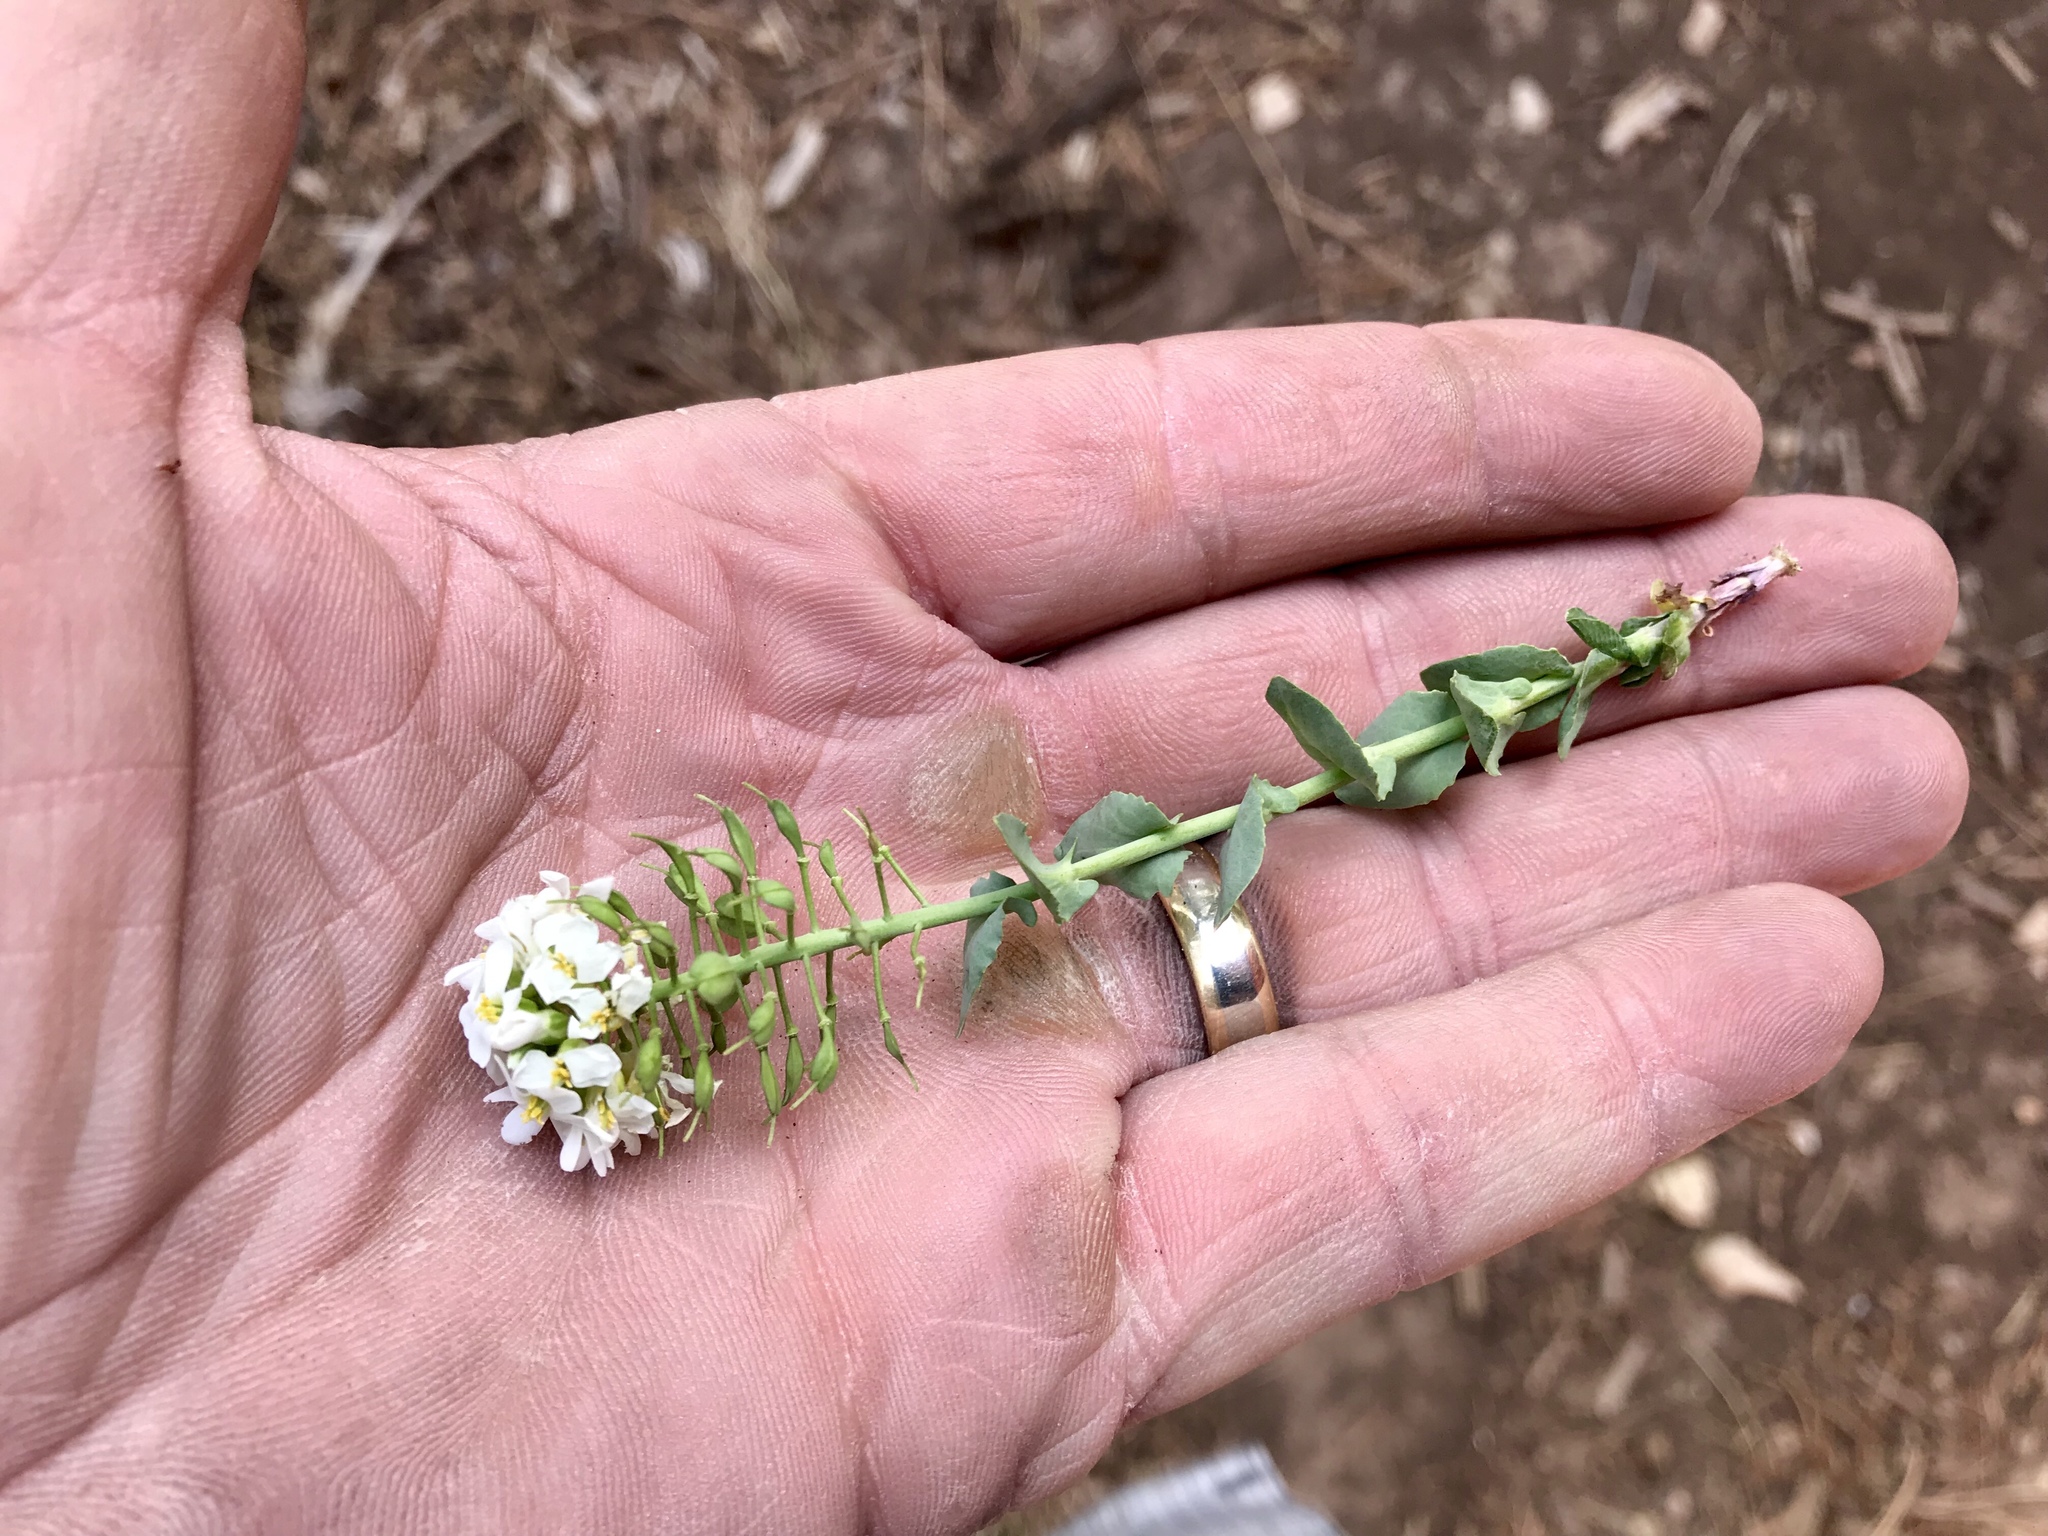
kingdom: Plantae
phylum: Tracheophyta
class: Magnoliopsida
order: Brassicales
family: Brassicaceae
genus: Noccaea
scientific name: Noccaea fendleri
